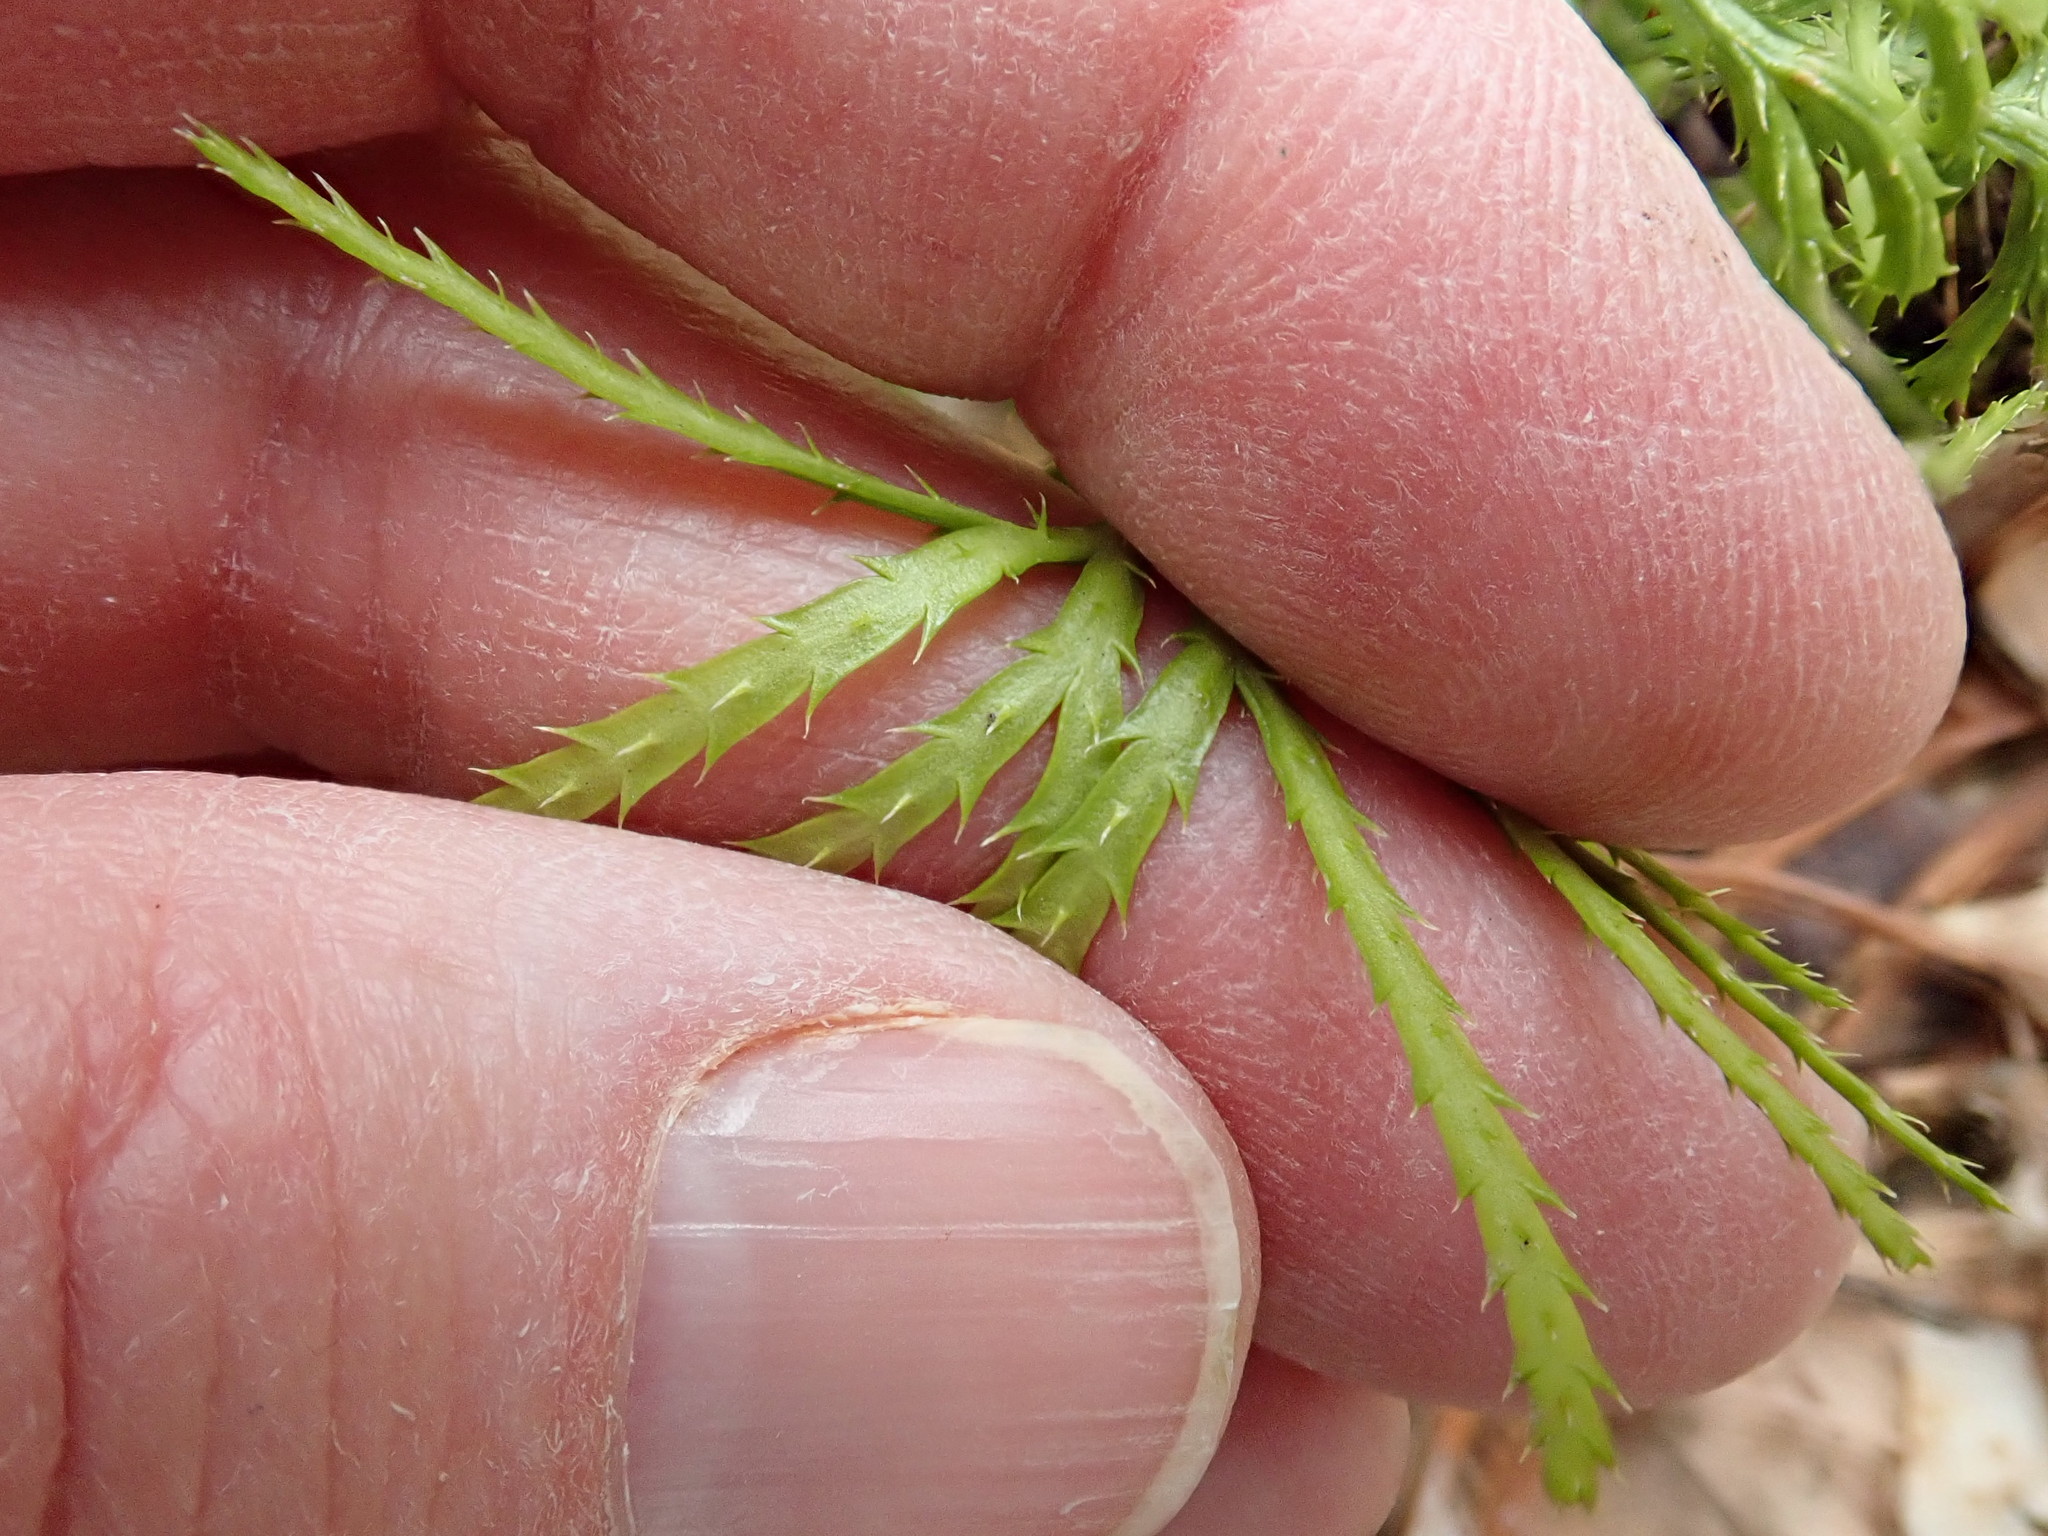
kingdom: Plantae
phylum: Tracheophyta
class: Lycopodiopsida
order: Lycopodiales
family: Lycopodiaceae
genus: Diphasiastrum
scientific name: Diphasiastrum digitatum
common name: Southern running-pine
